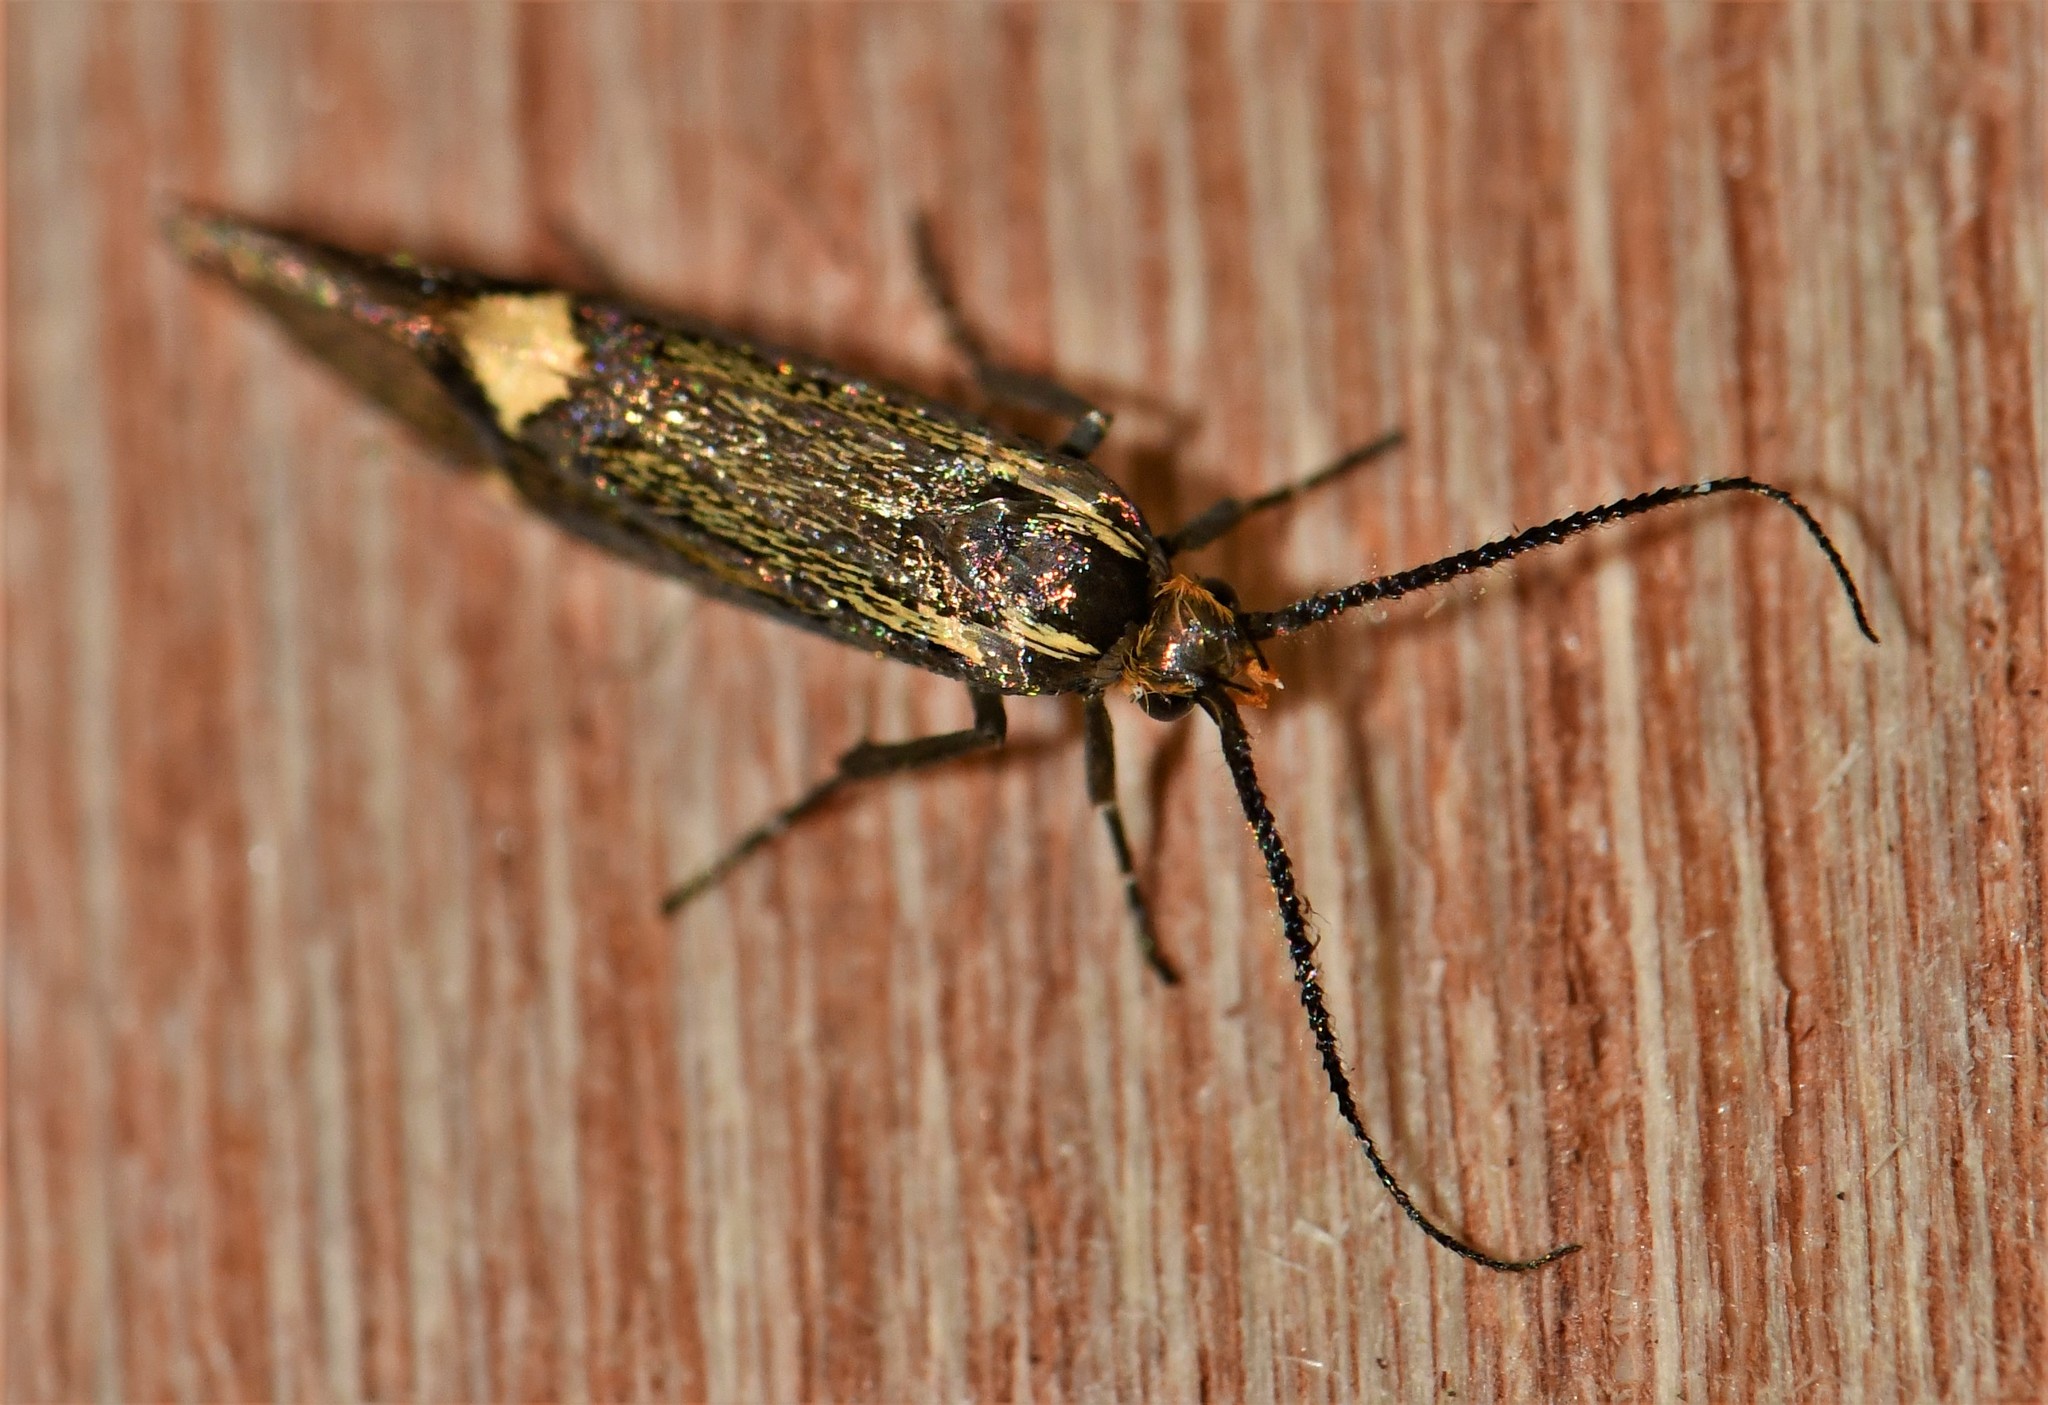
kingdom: Animalia
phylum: Arthropoda
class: Insecta
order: Lepidoptera
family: Oecophoridae
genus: Dafa
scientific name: Dafa Esperia sulphurella
